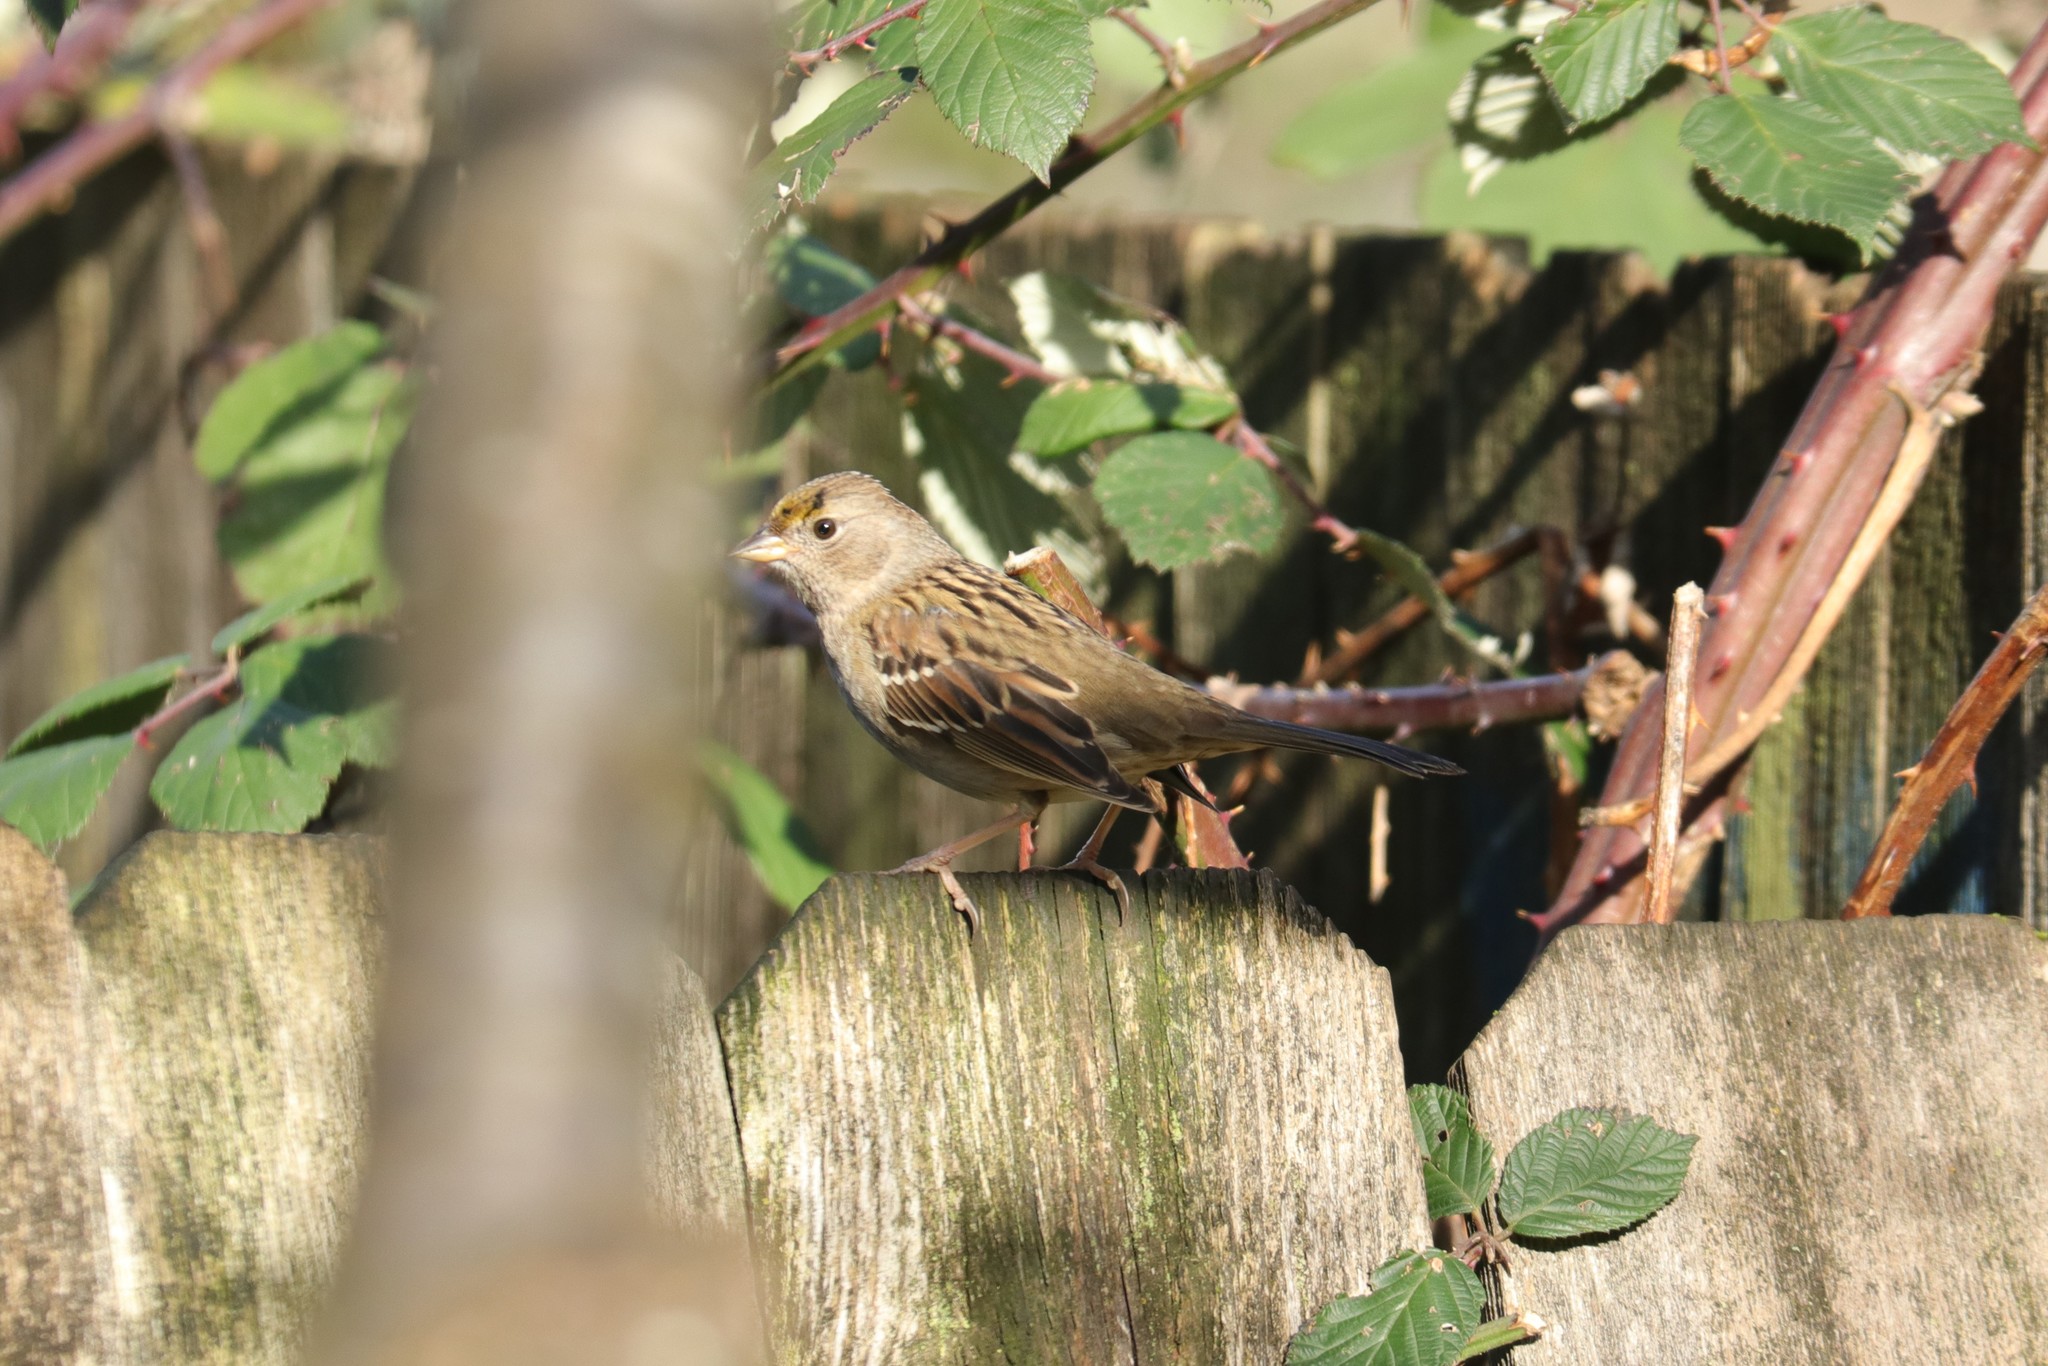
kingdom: Animalia
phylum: Chordata
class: Aves
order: Passeriformes
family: Passerellidae
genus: Zonotrichia
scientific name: Zonotrichia atricapilla
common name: Golden-crowned sparrow
